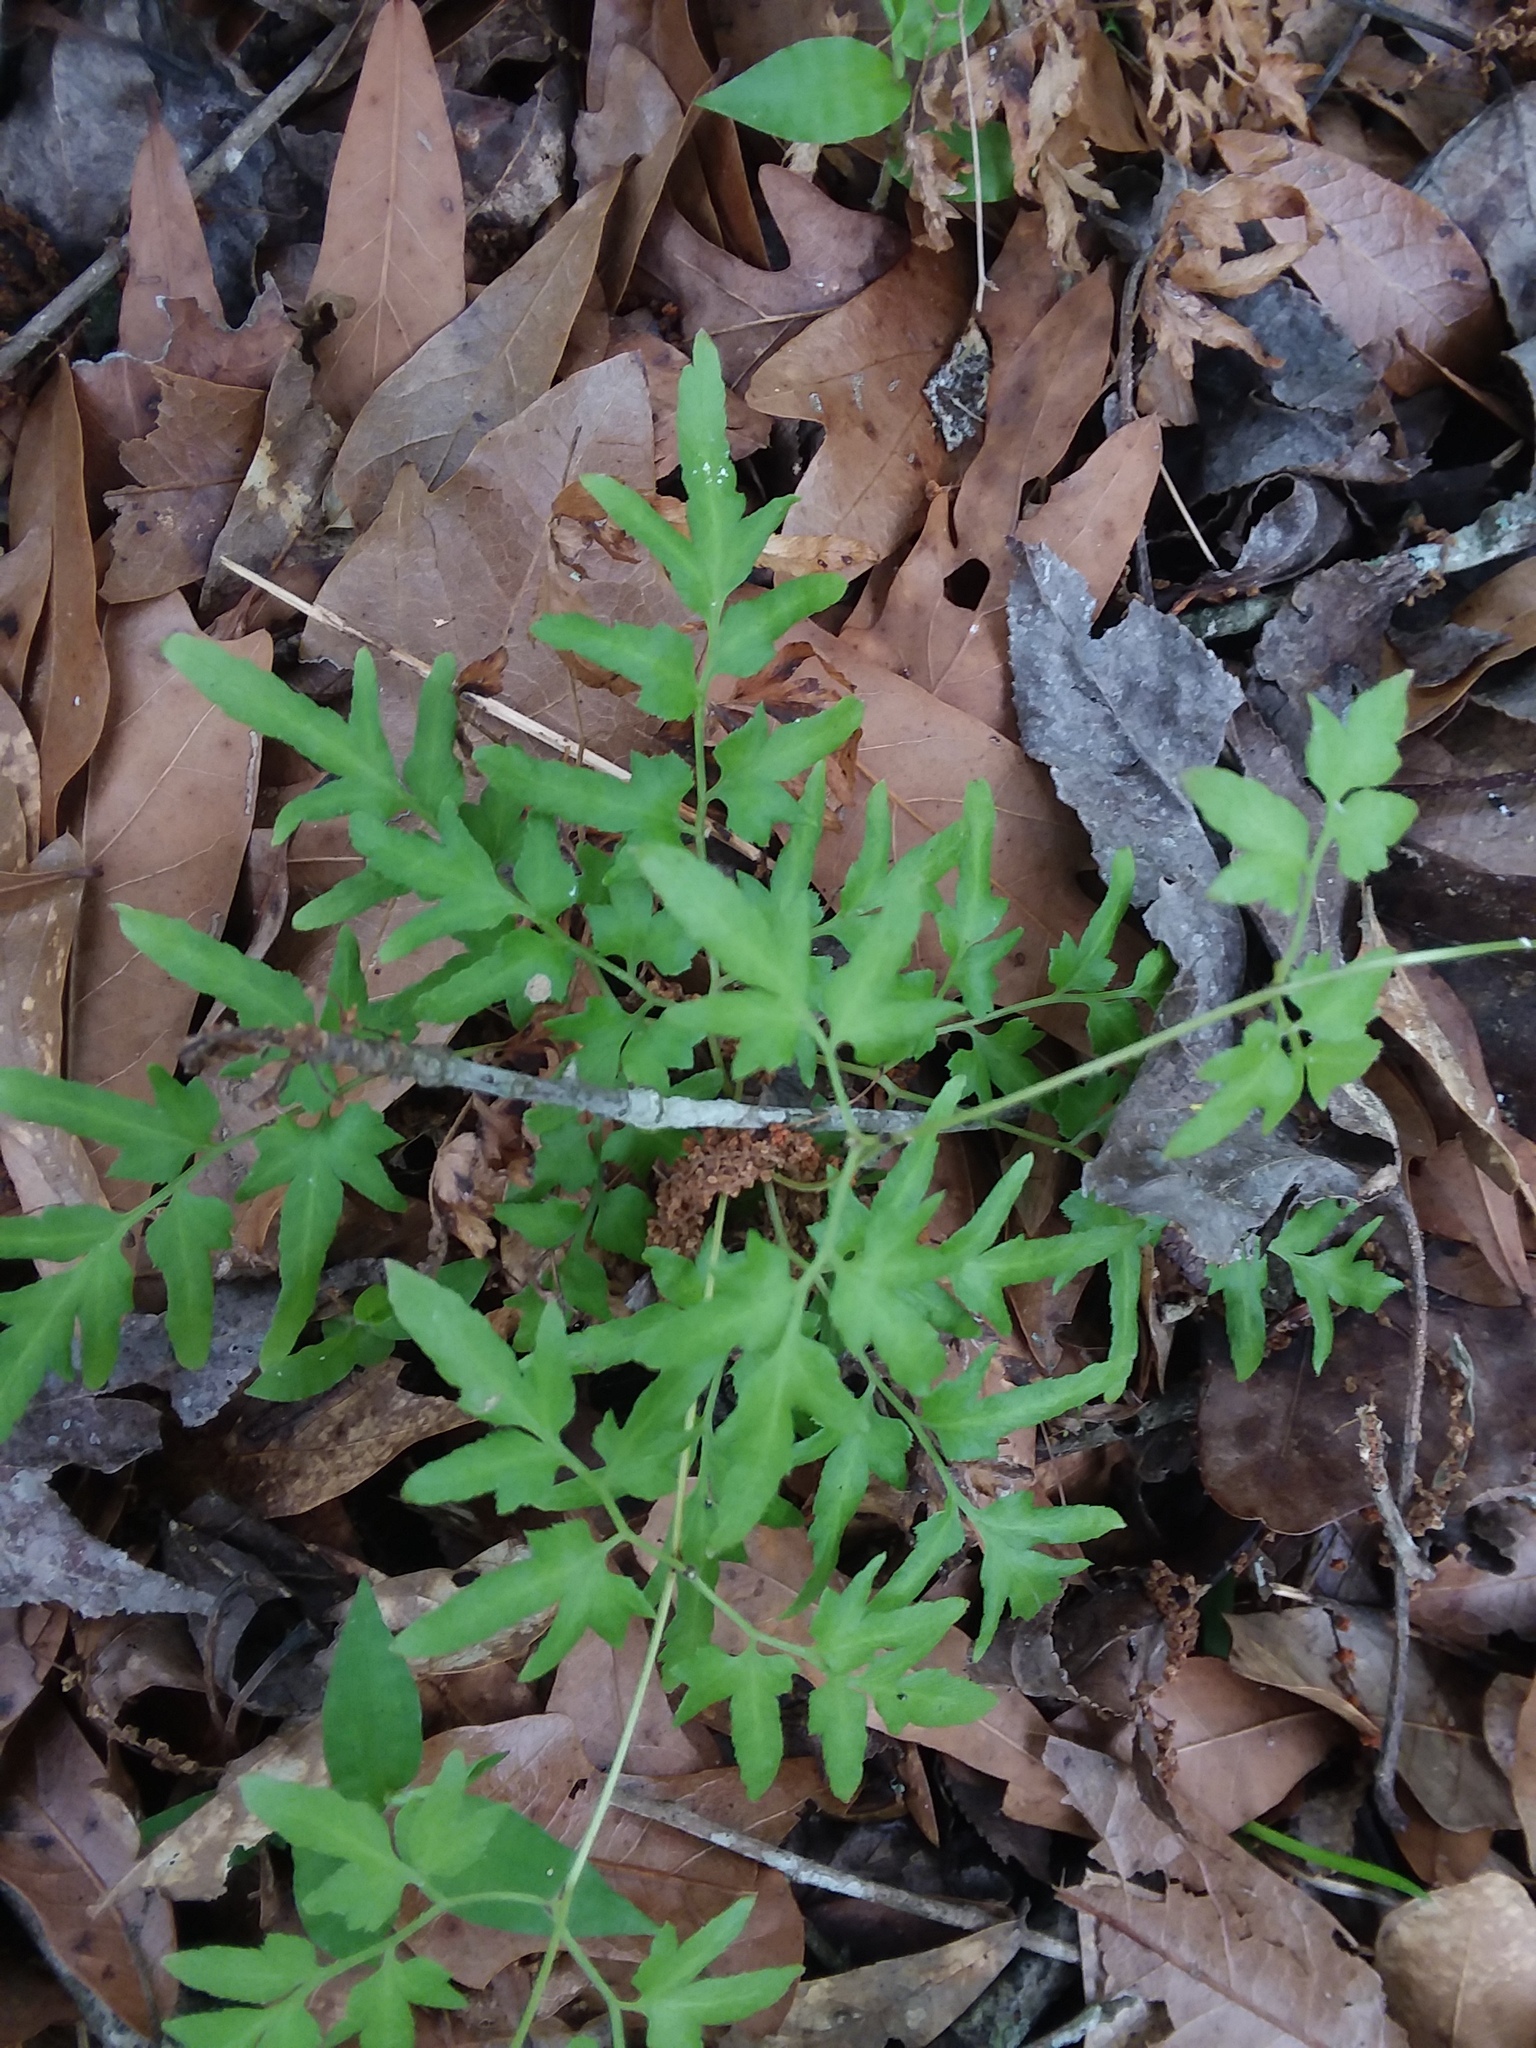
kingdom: Plantae
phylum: Tracheophyta
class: Polypodiopsida
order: Schizaeales
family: Lygodiaceae
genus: Lygodium
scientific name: Lygodium japonicum
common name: Japanese climbing fern
